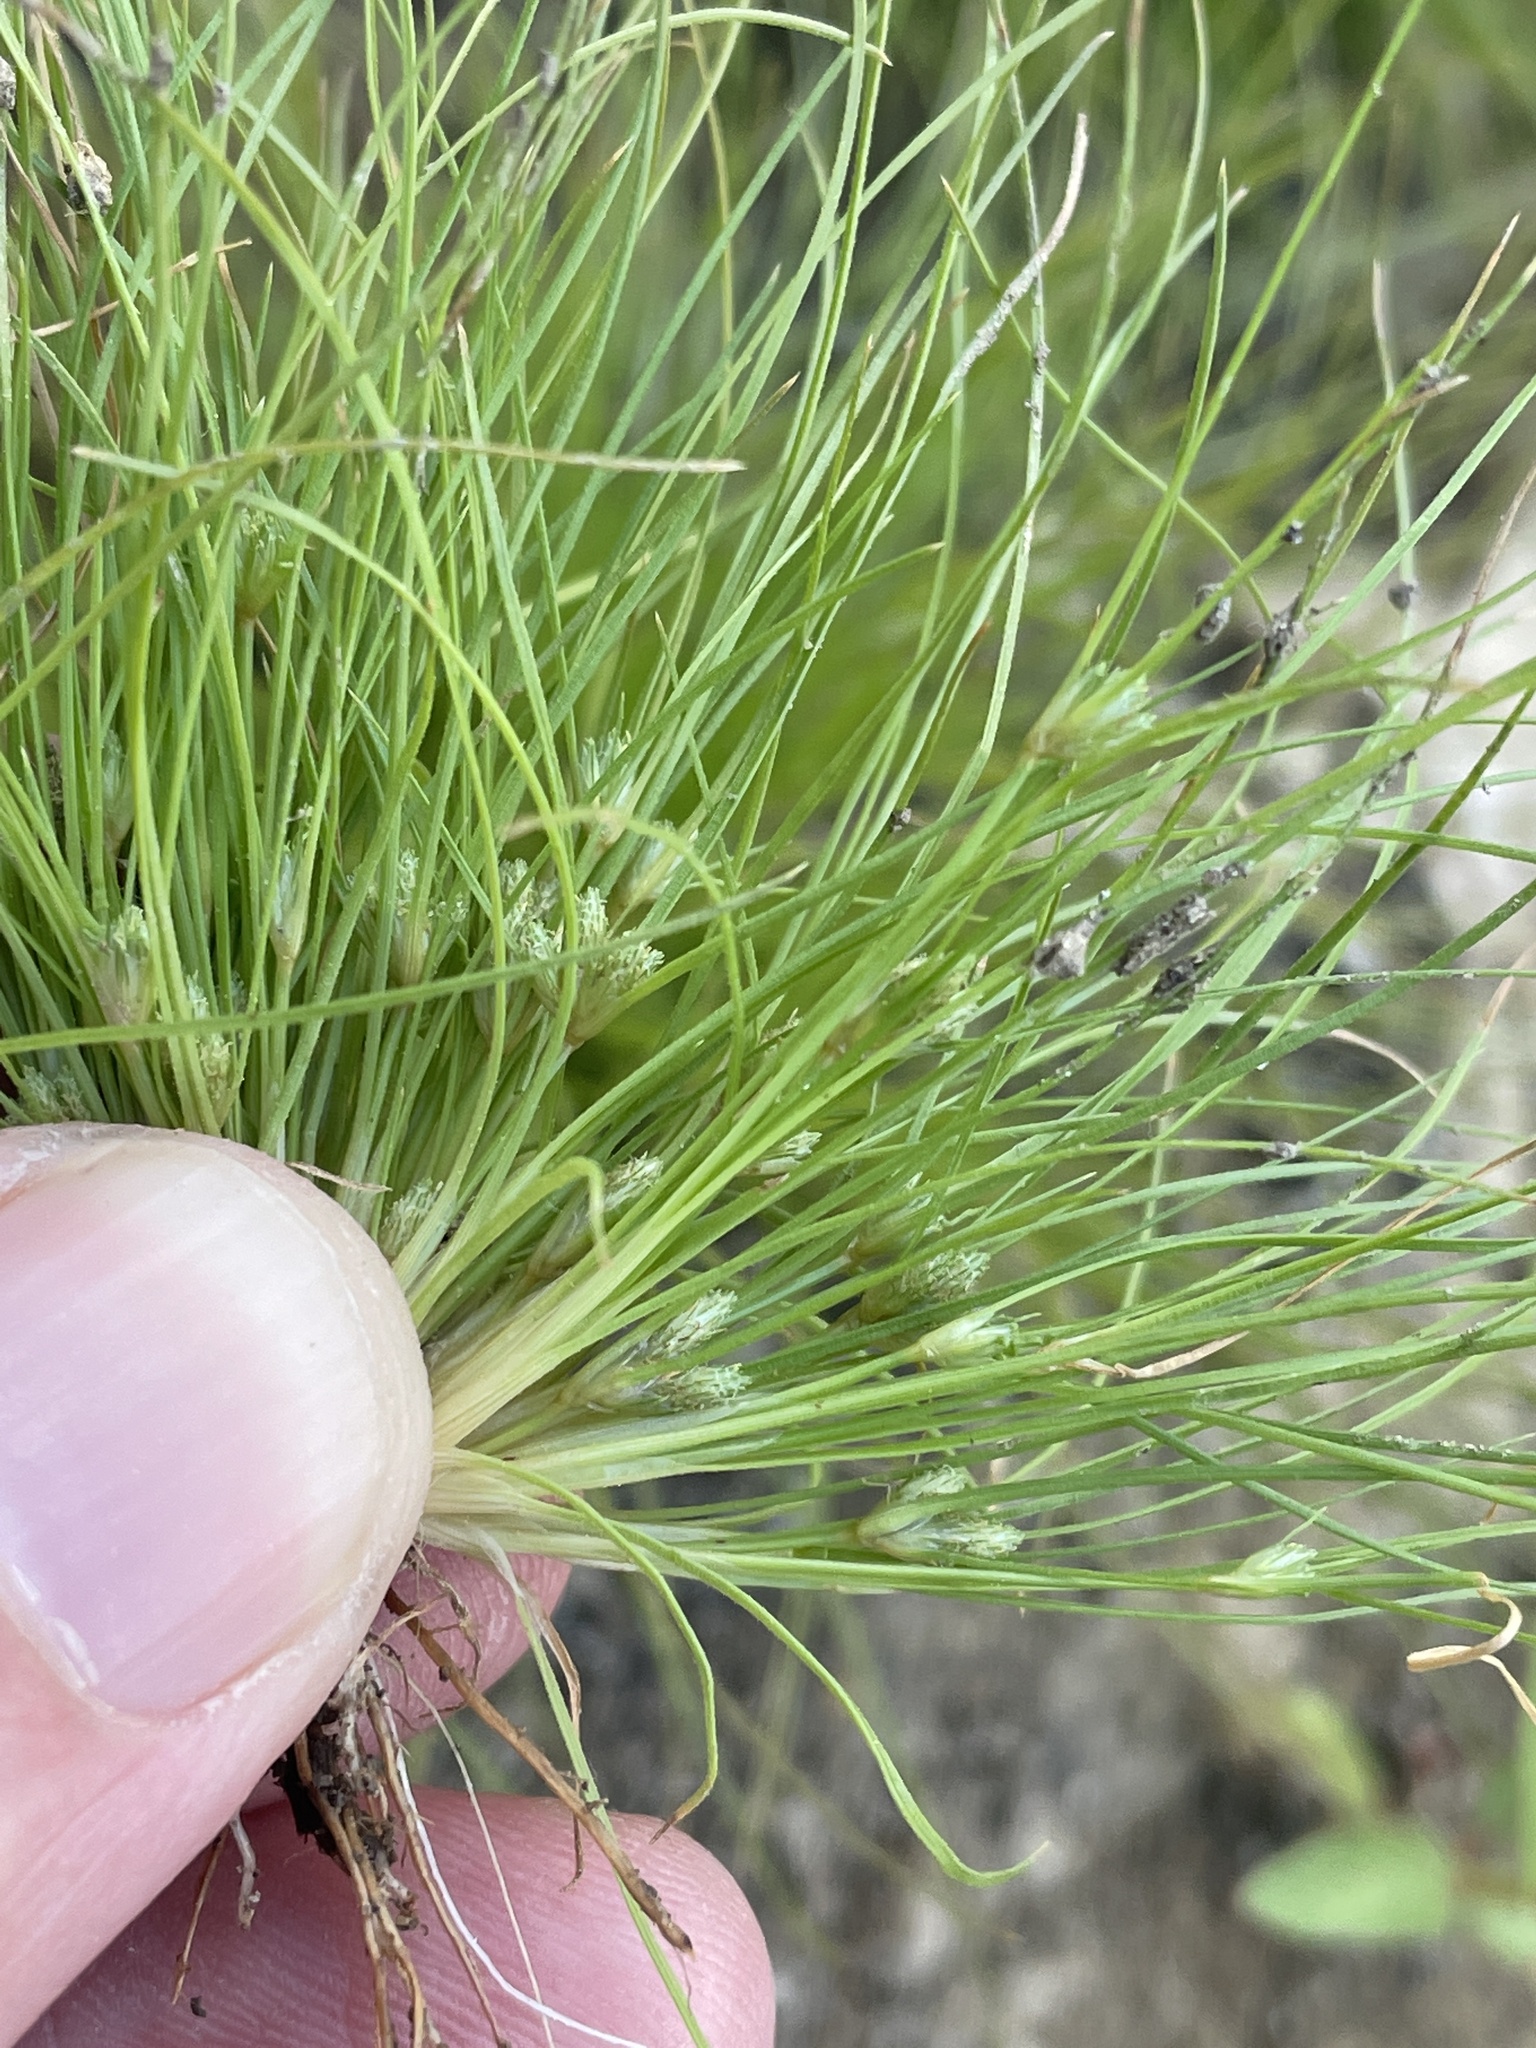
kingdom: Plantae
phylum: Tracheophyta
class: Liliopsida
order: Poales
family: Cyperaceae
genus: Fimbristylis
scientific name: Fimbristylis vahlii
